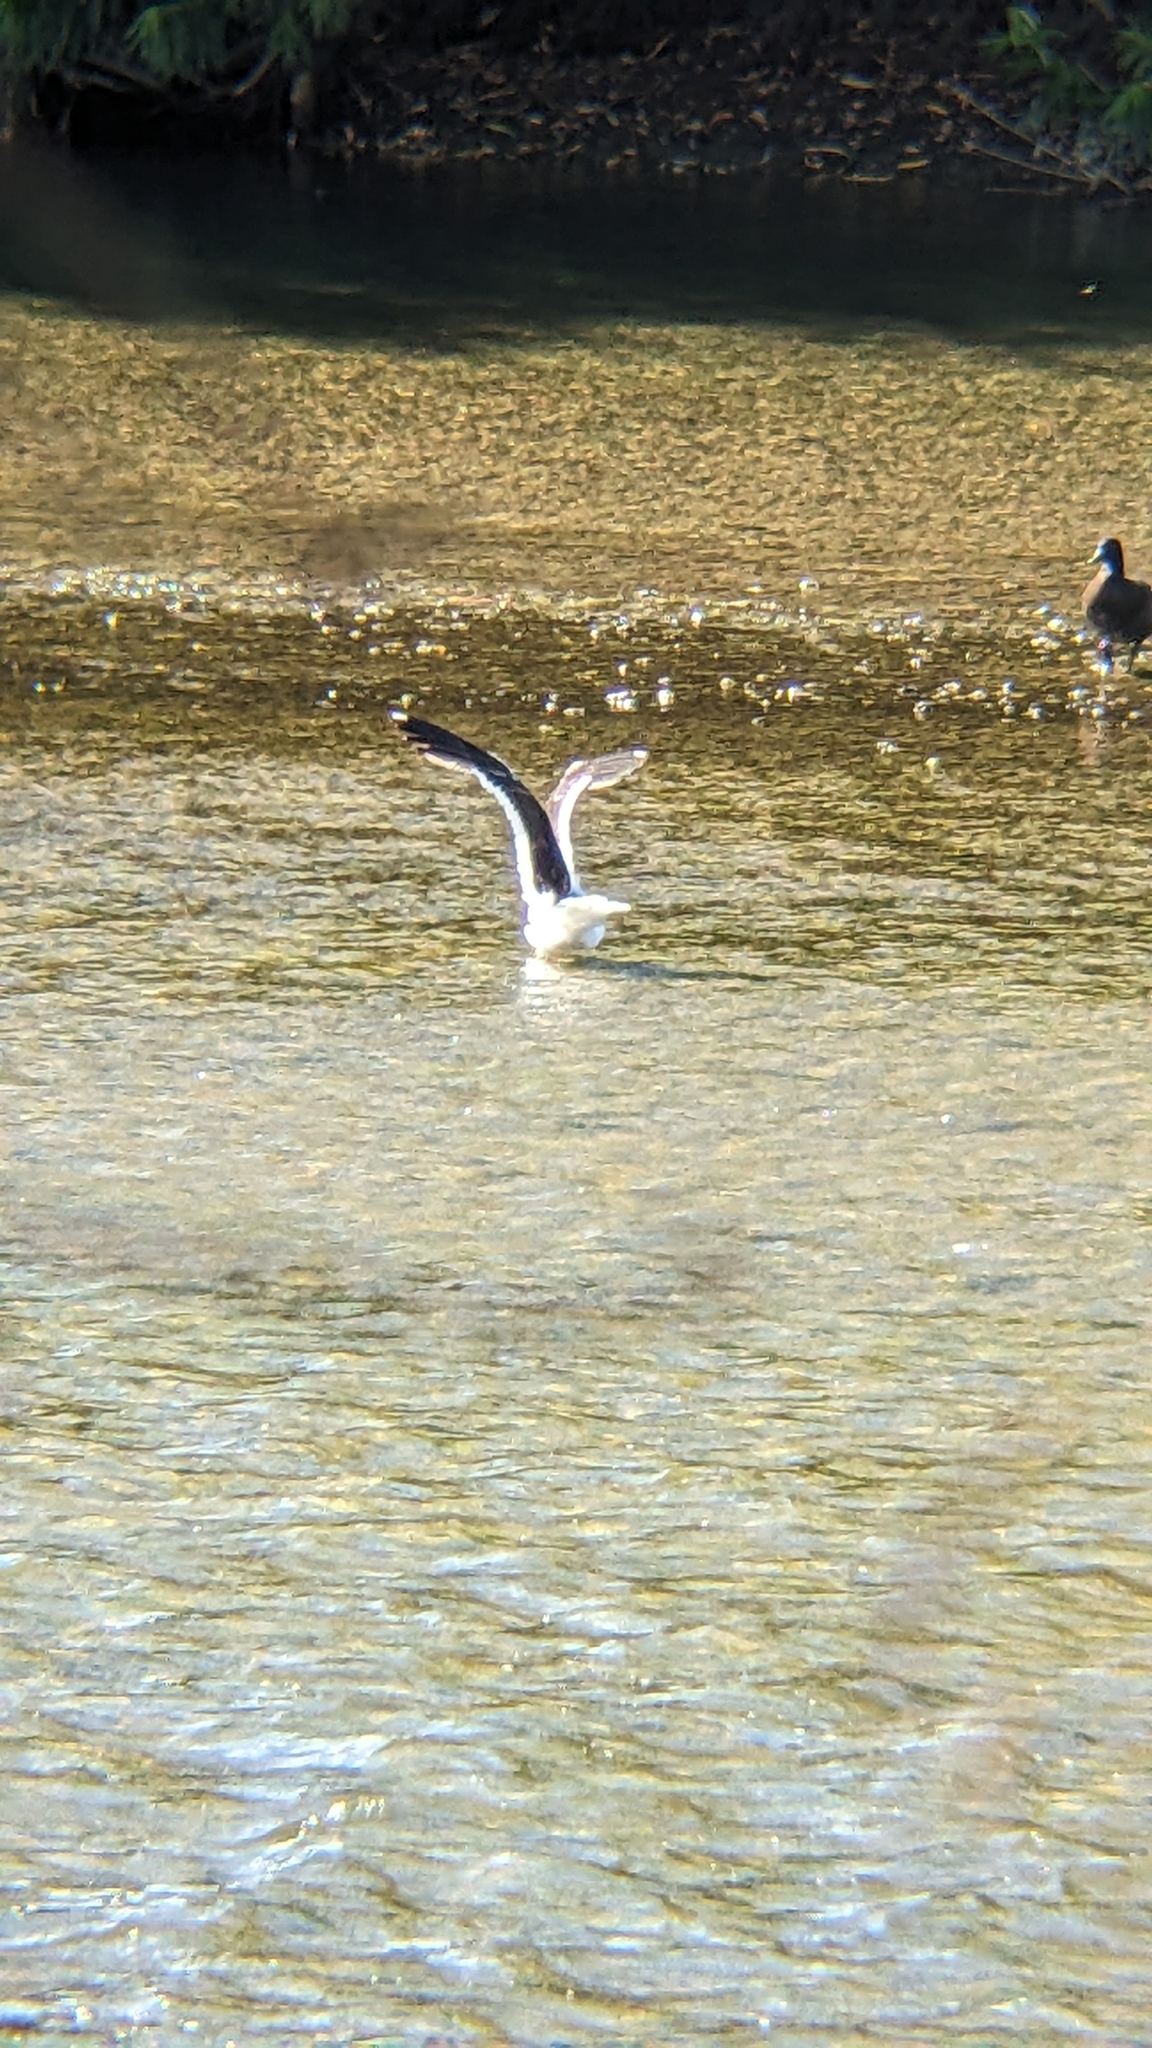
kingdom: Animalia
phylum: Chordata
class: Aves
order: Charadriiformes
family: Laridae
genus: Larus
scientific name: Larus dominicanus
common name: Kelp gull
